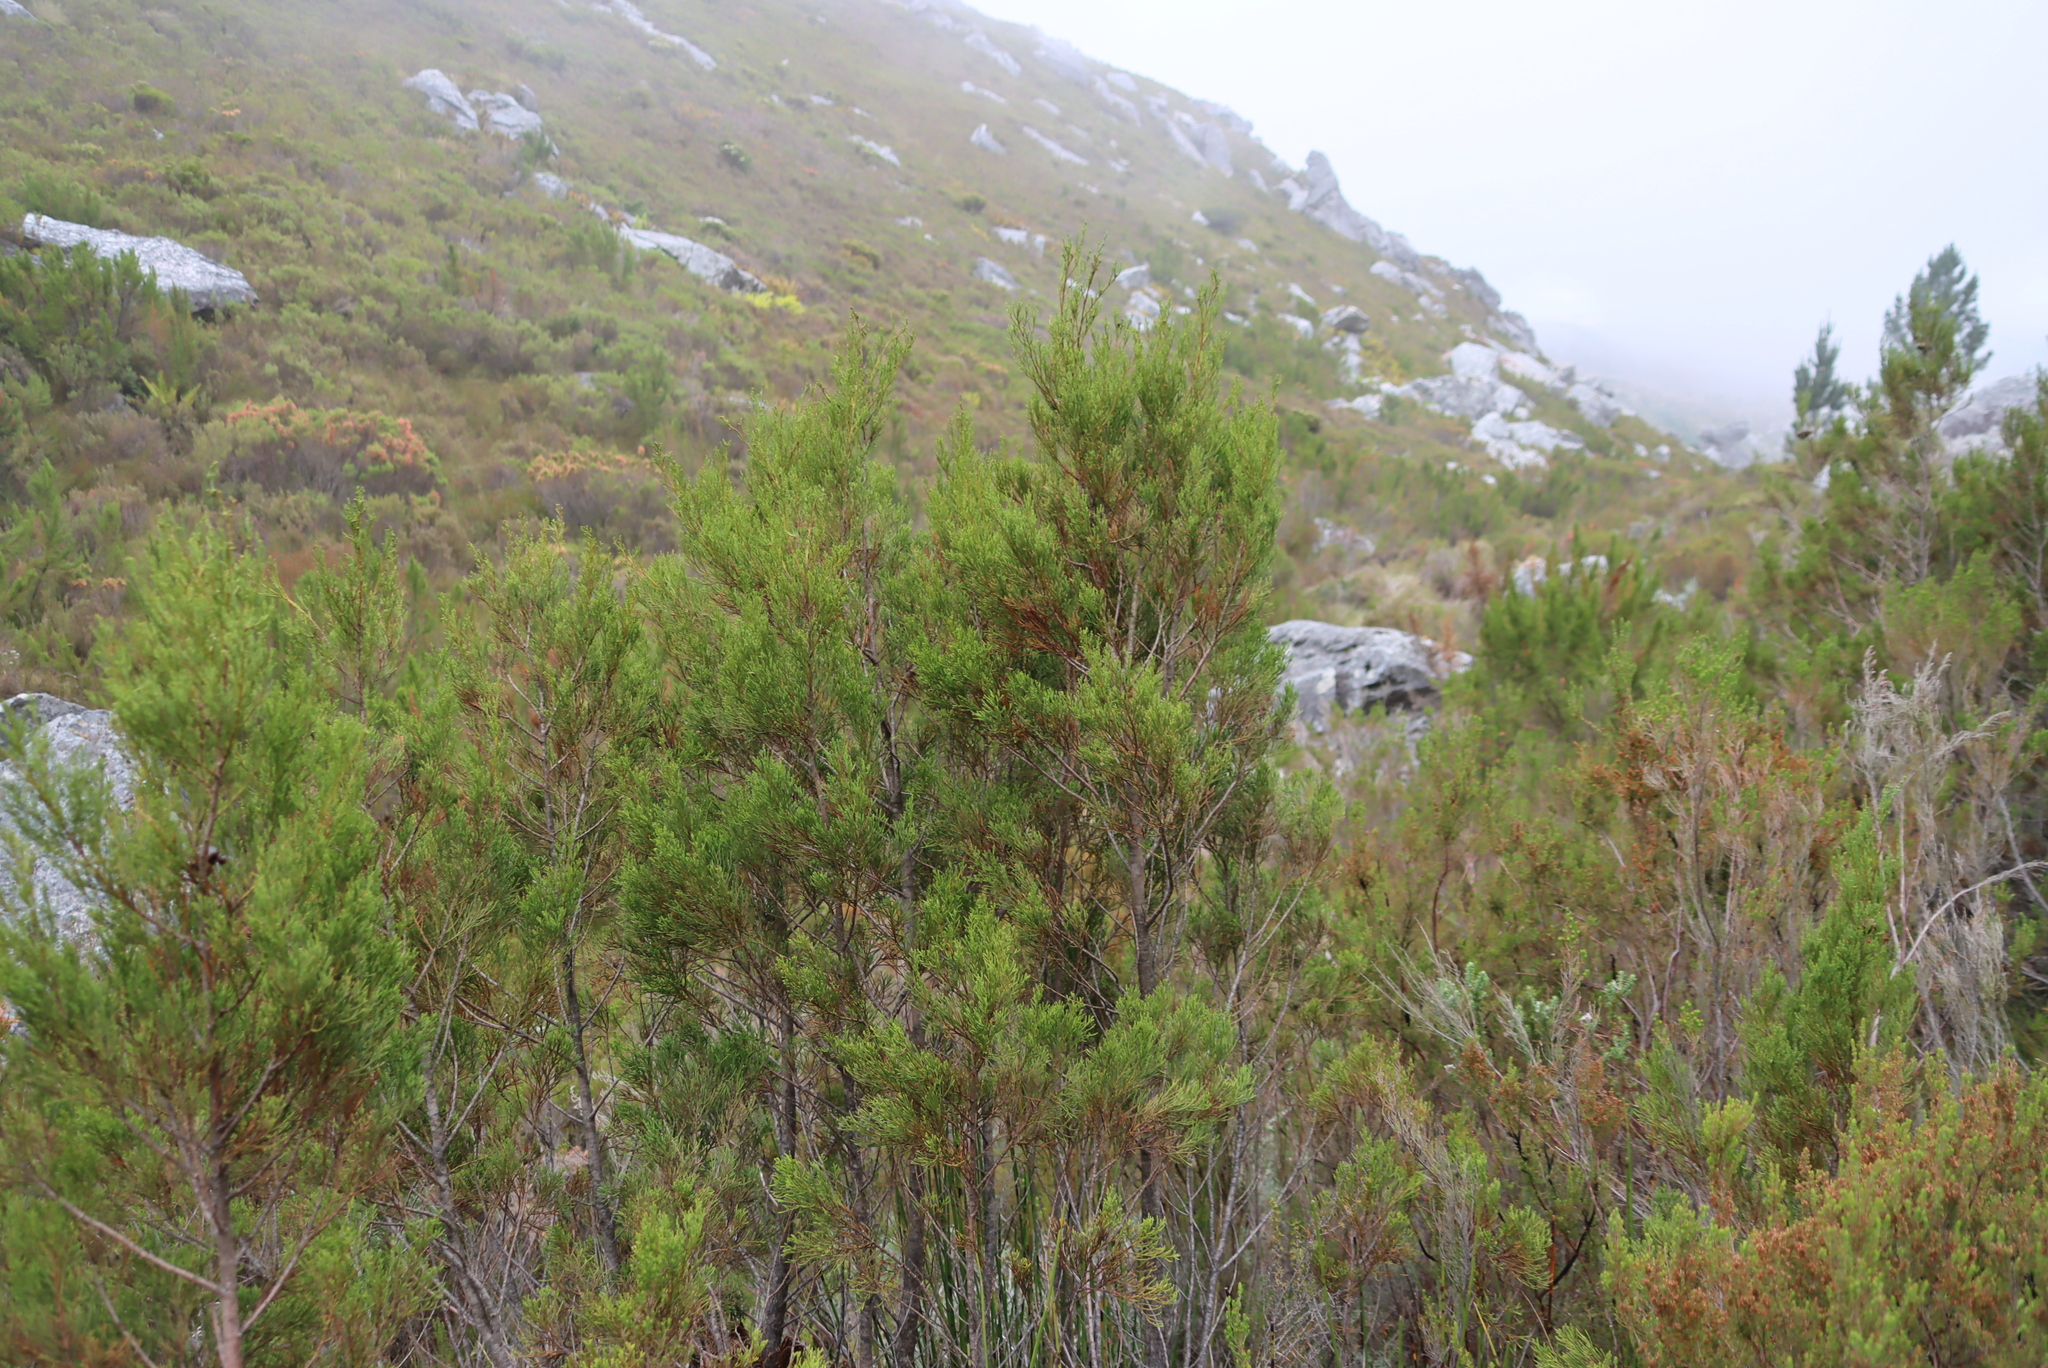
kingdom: Plantae
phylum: Tracheophyta
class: Pinopsida
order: Pinales
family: Cupressaceae
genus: Widdringtonia
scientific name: Widdringtonia nodiflora
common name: Cape cypress
